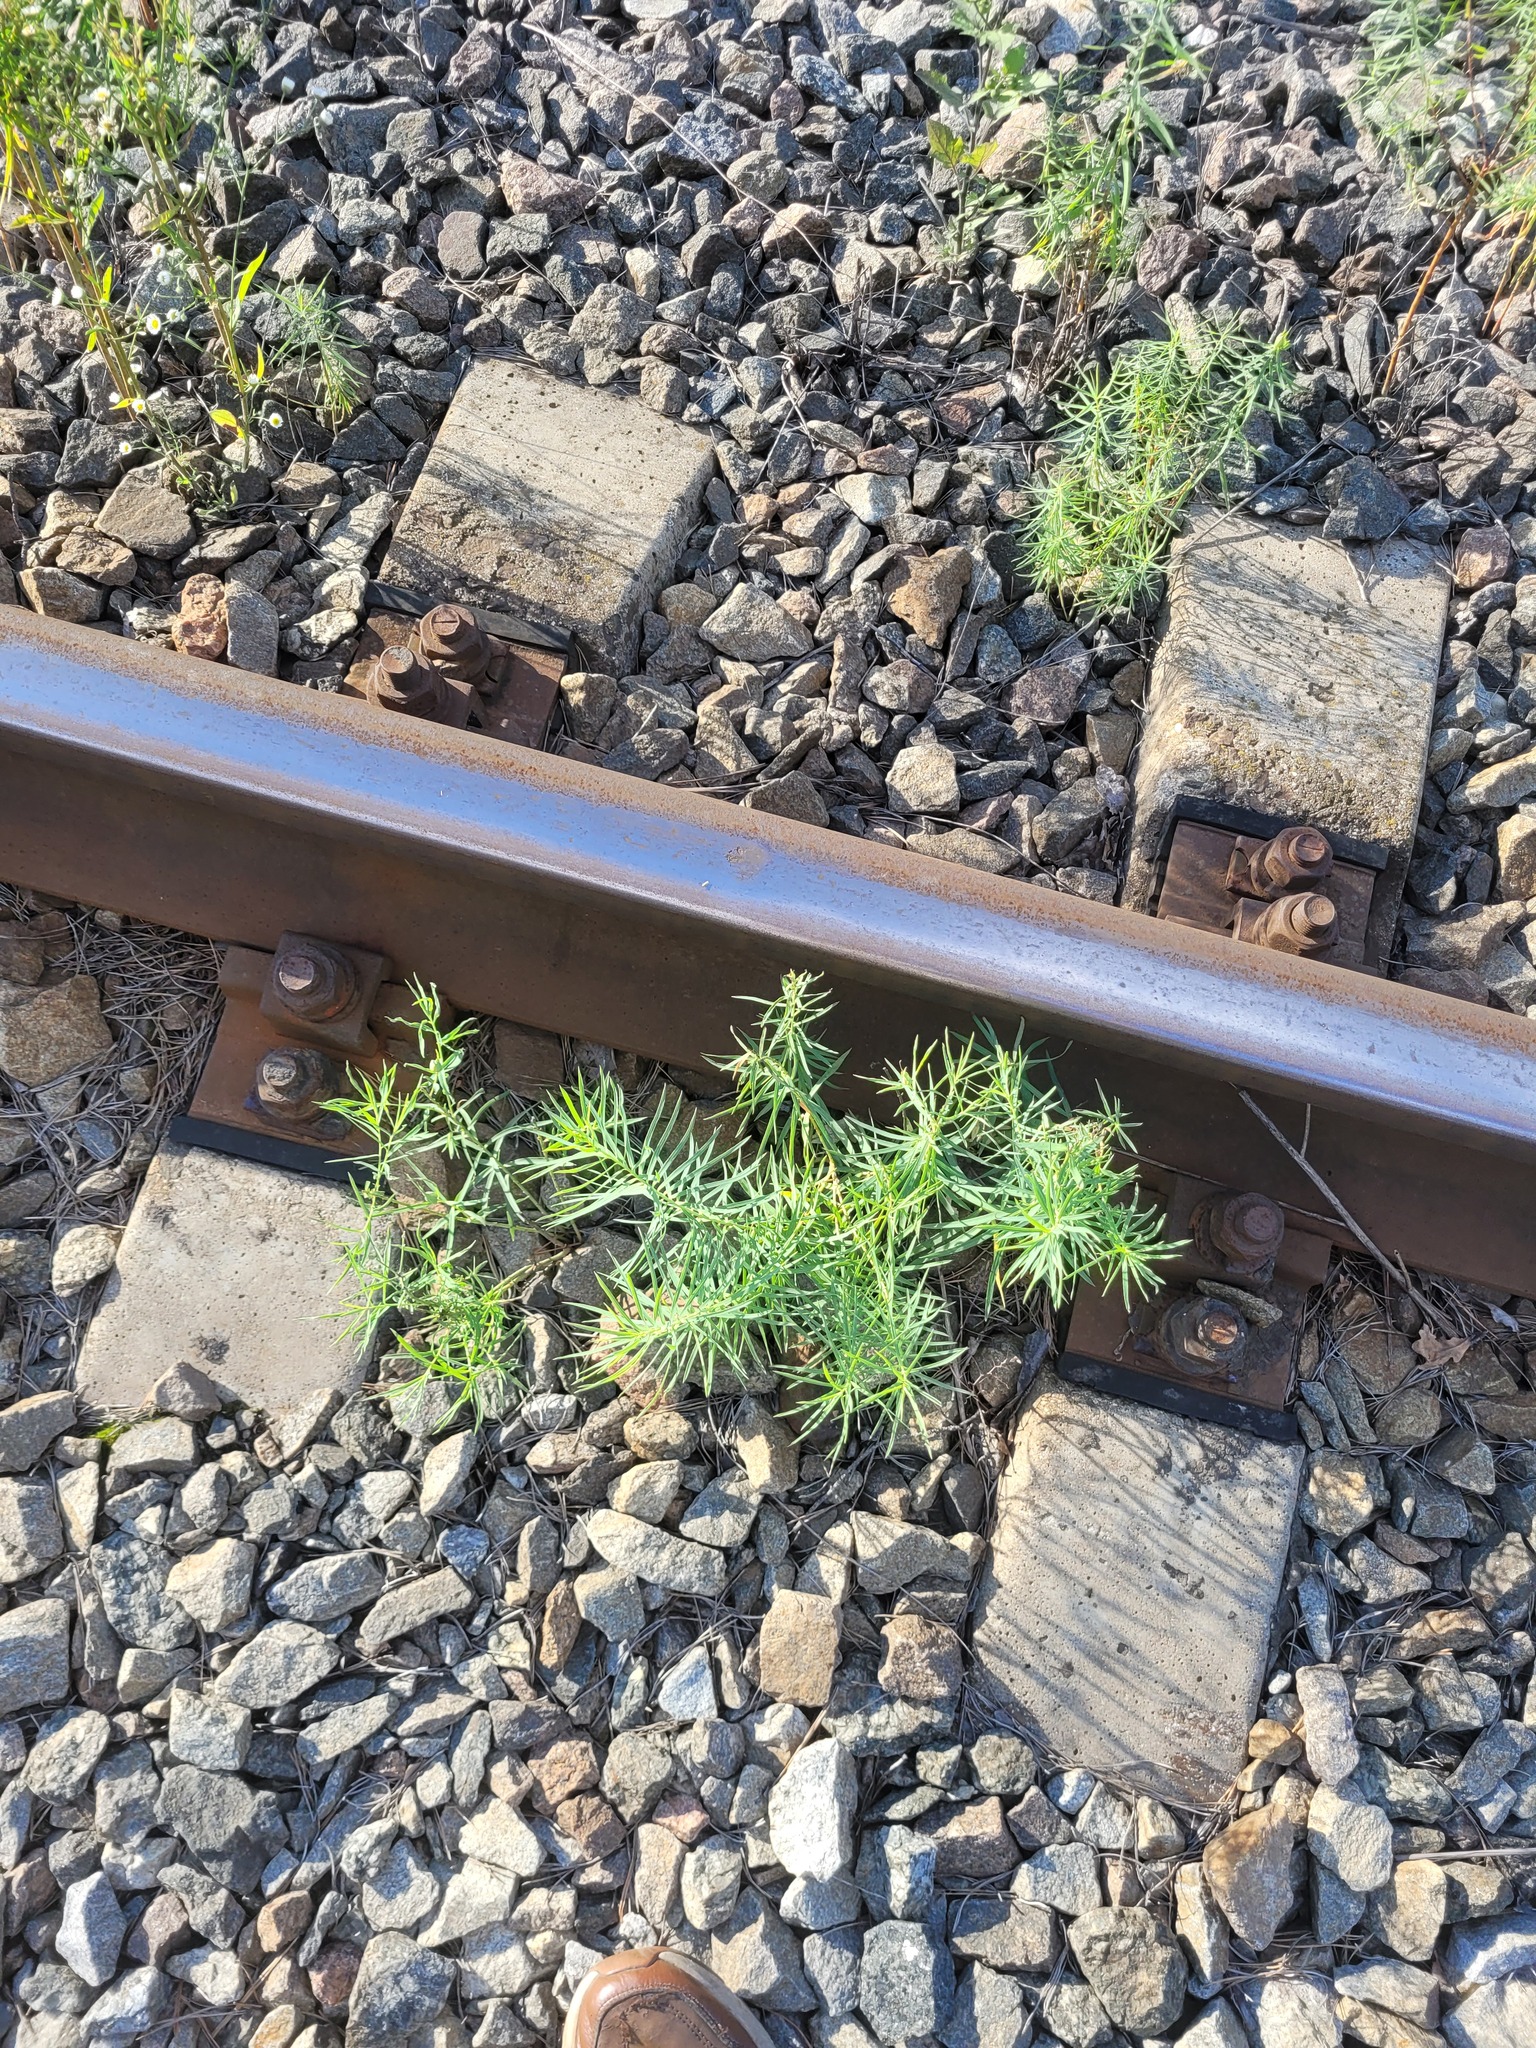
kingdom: Plantae
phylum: Tracheophyta
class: Magnoliopsida
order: Malpighiales
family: Euphorbiaceae
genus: Euphorbia
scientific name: Euphorbia virgata
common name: Leafy spurge
